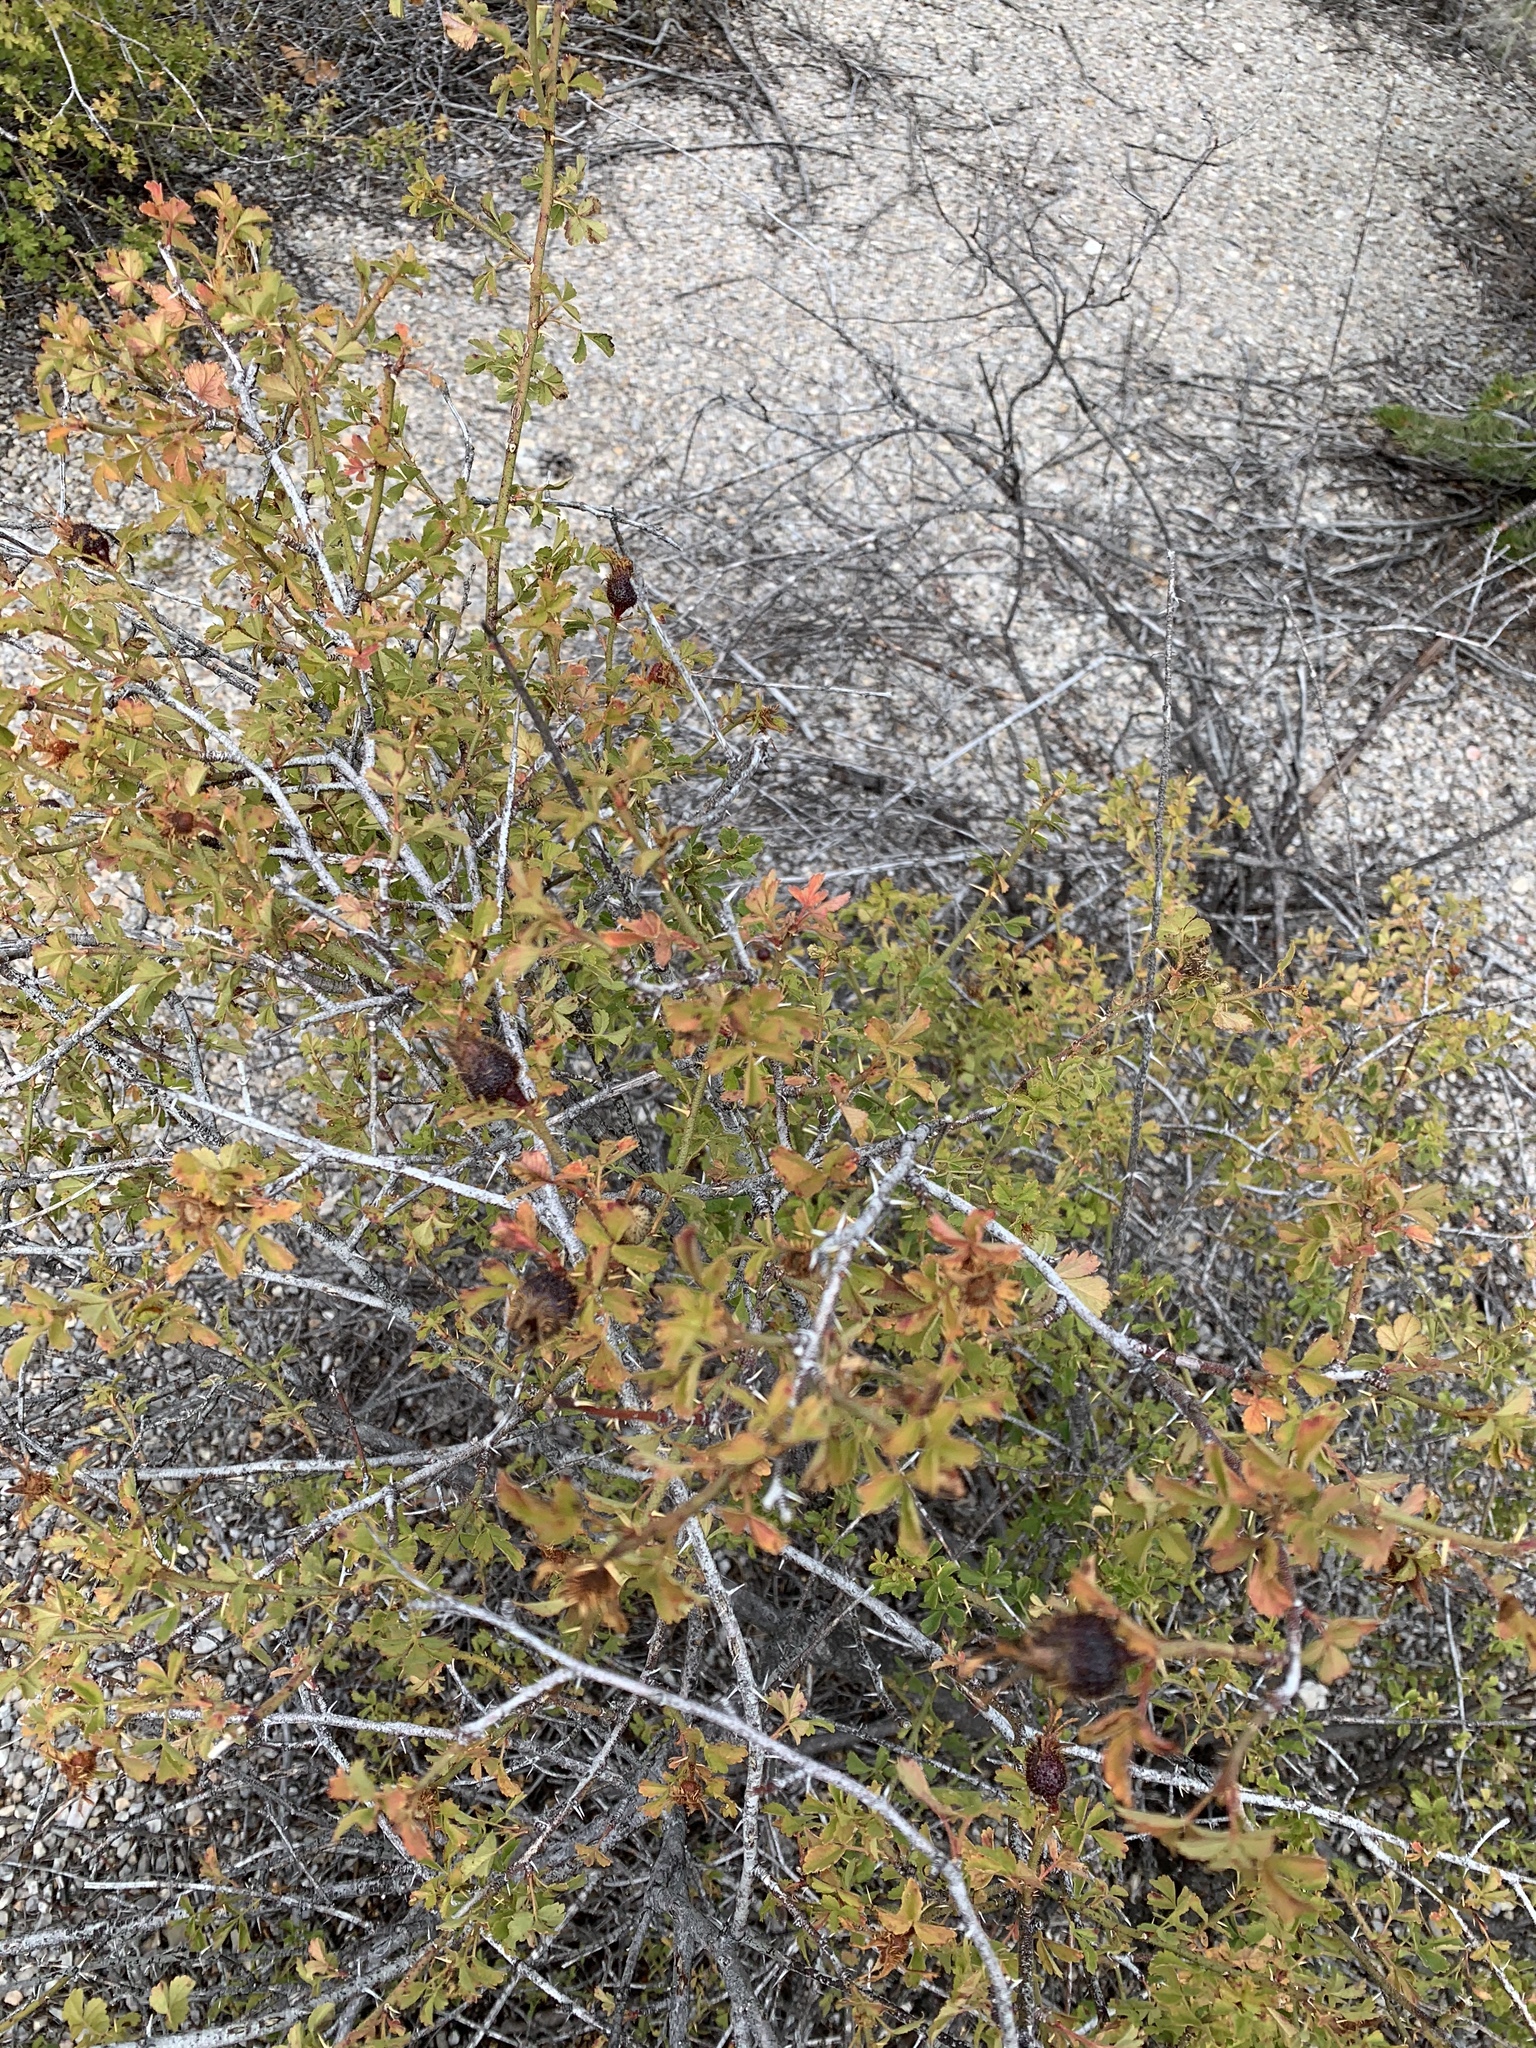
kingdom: Plantae
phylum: Tracheophyta
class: Magnoliopsida
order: Rosales
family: Rosaceae
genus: Rosa
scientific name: Rosa stellata
